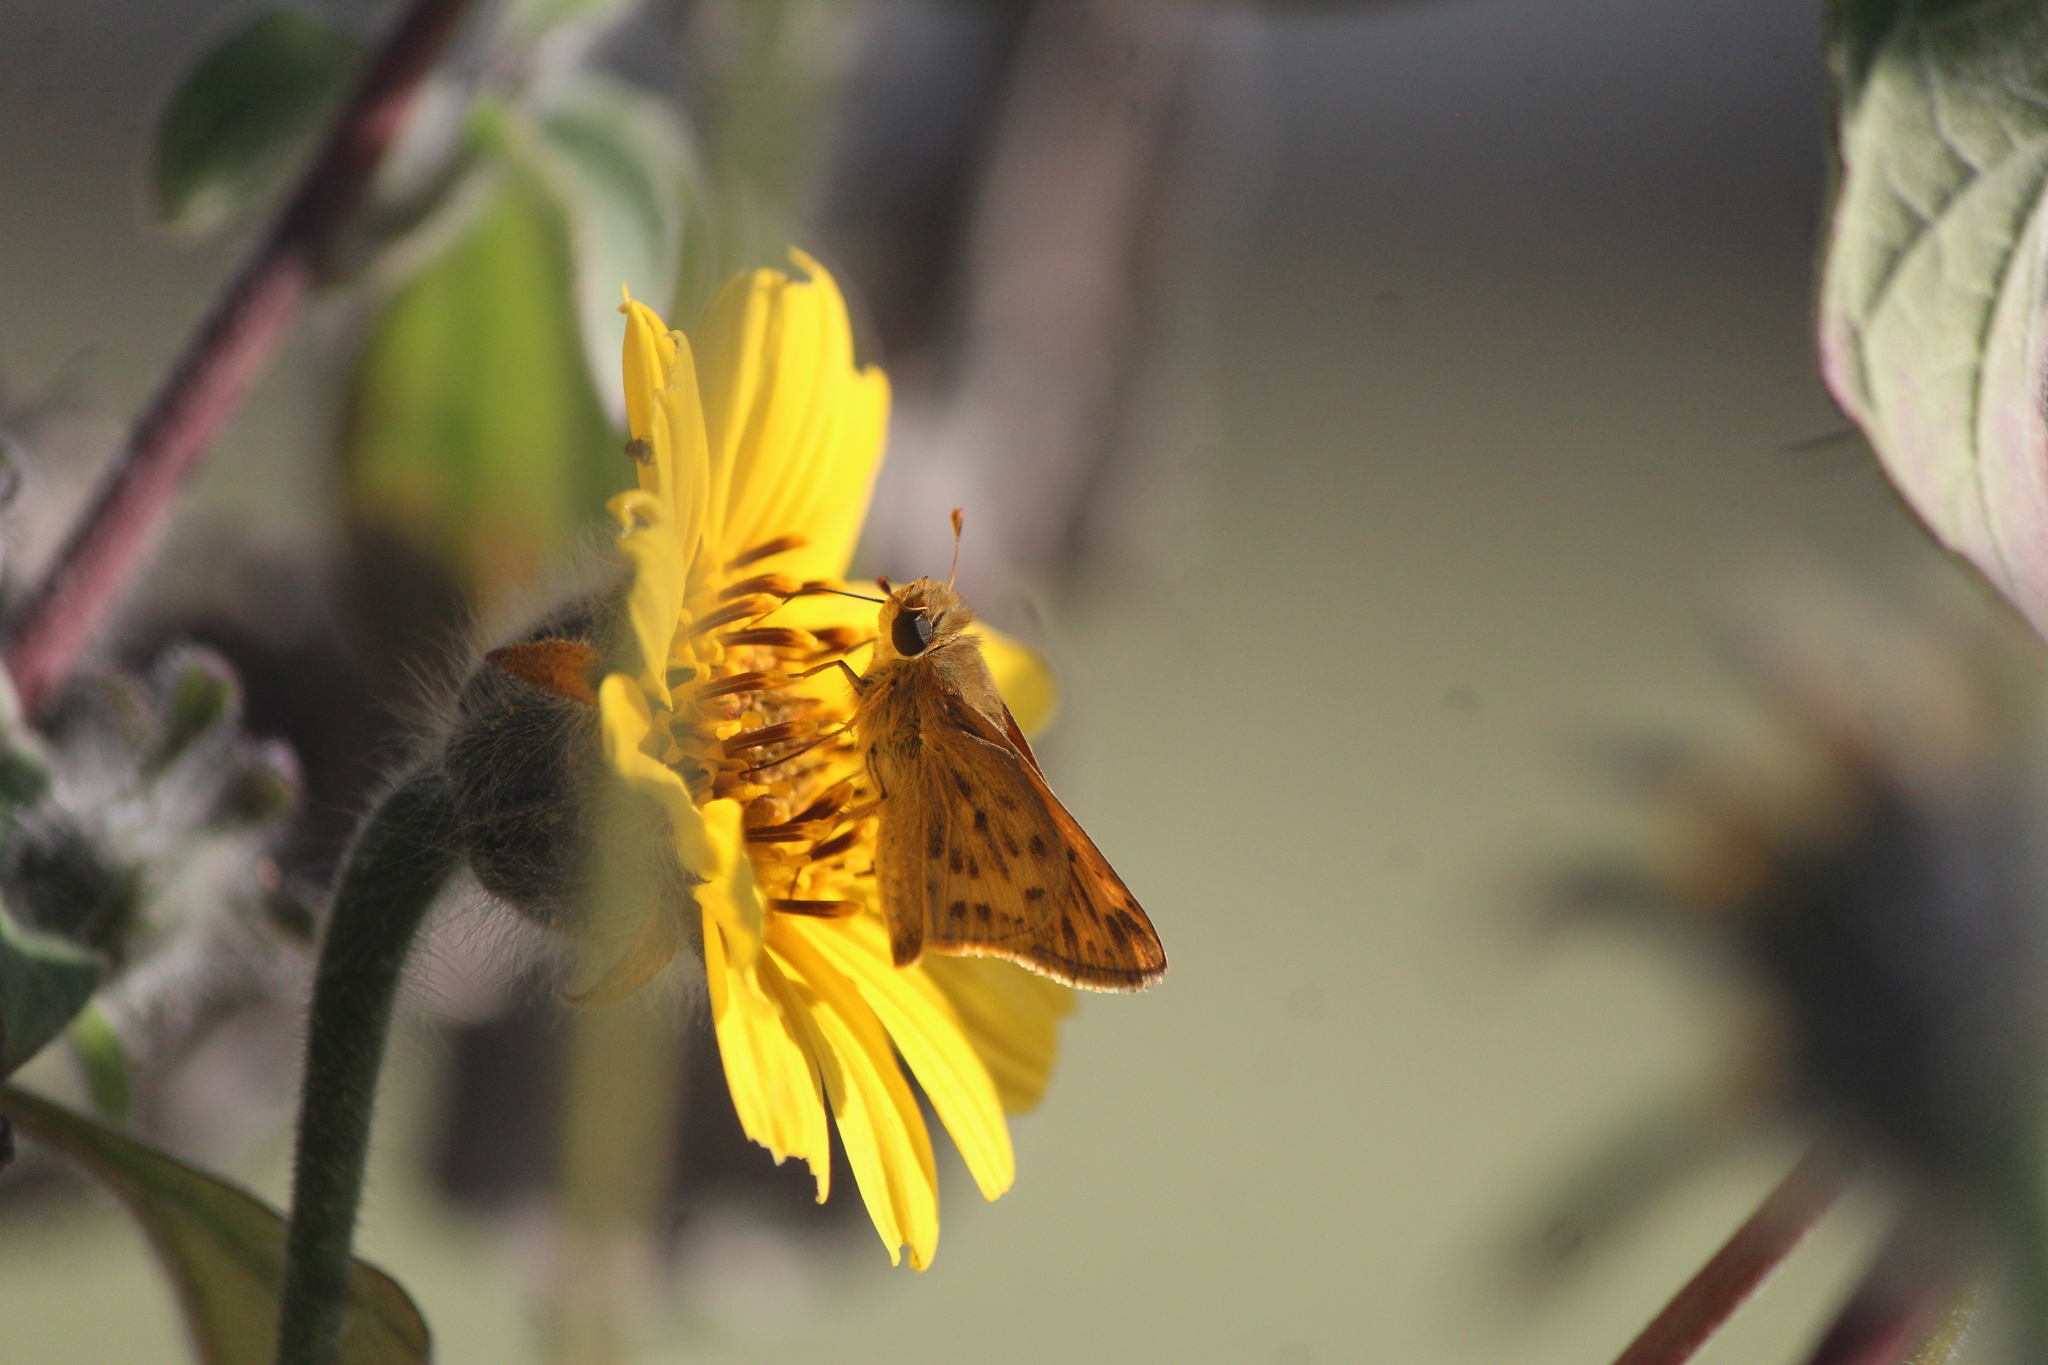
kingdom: Animalia
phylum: Arthropoda
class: Insecta
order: Lepidoptera
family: Hesperiidae
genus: Hylephila
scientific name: Hylephila phyleus
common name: Fiery skipper
